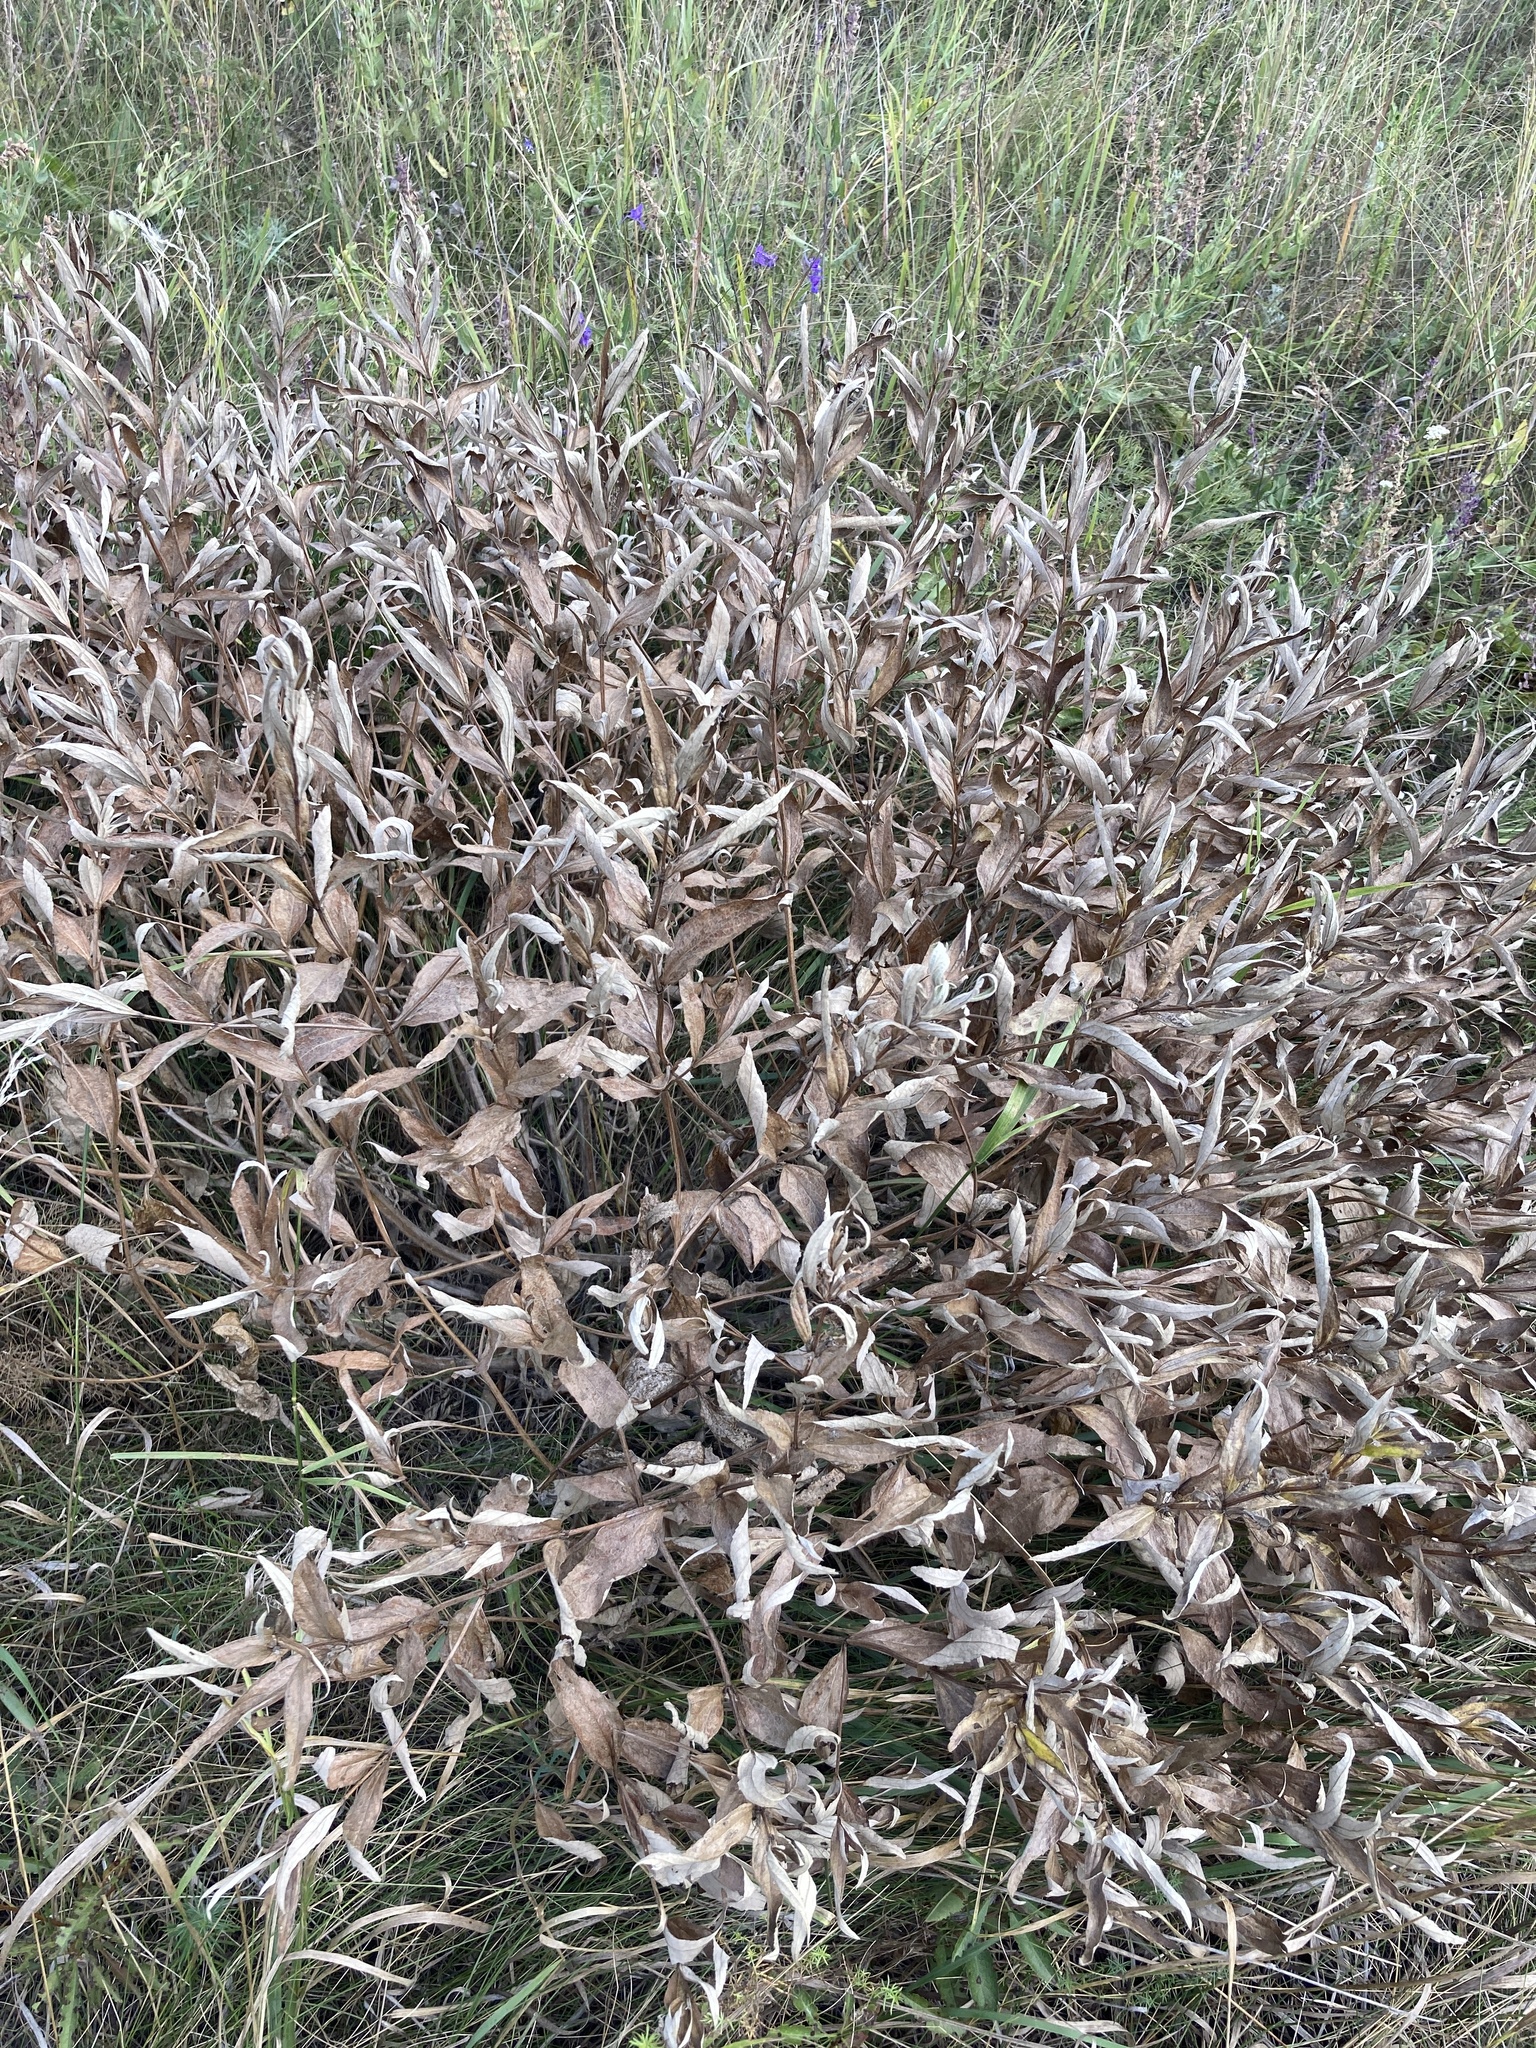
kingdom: Plantae
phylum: Tracheophyta
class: Magnoliopsida
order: Lamiales
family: Lamiaceae
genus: Phlomis
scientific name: Phlomis herba-venti
